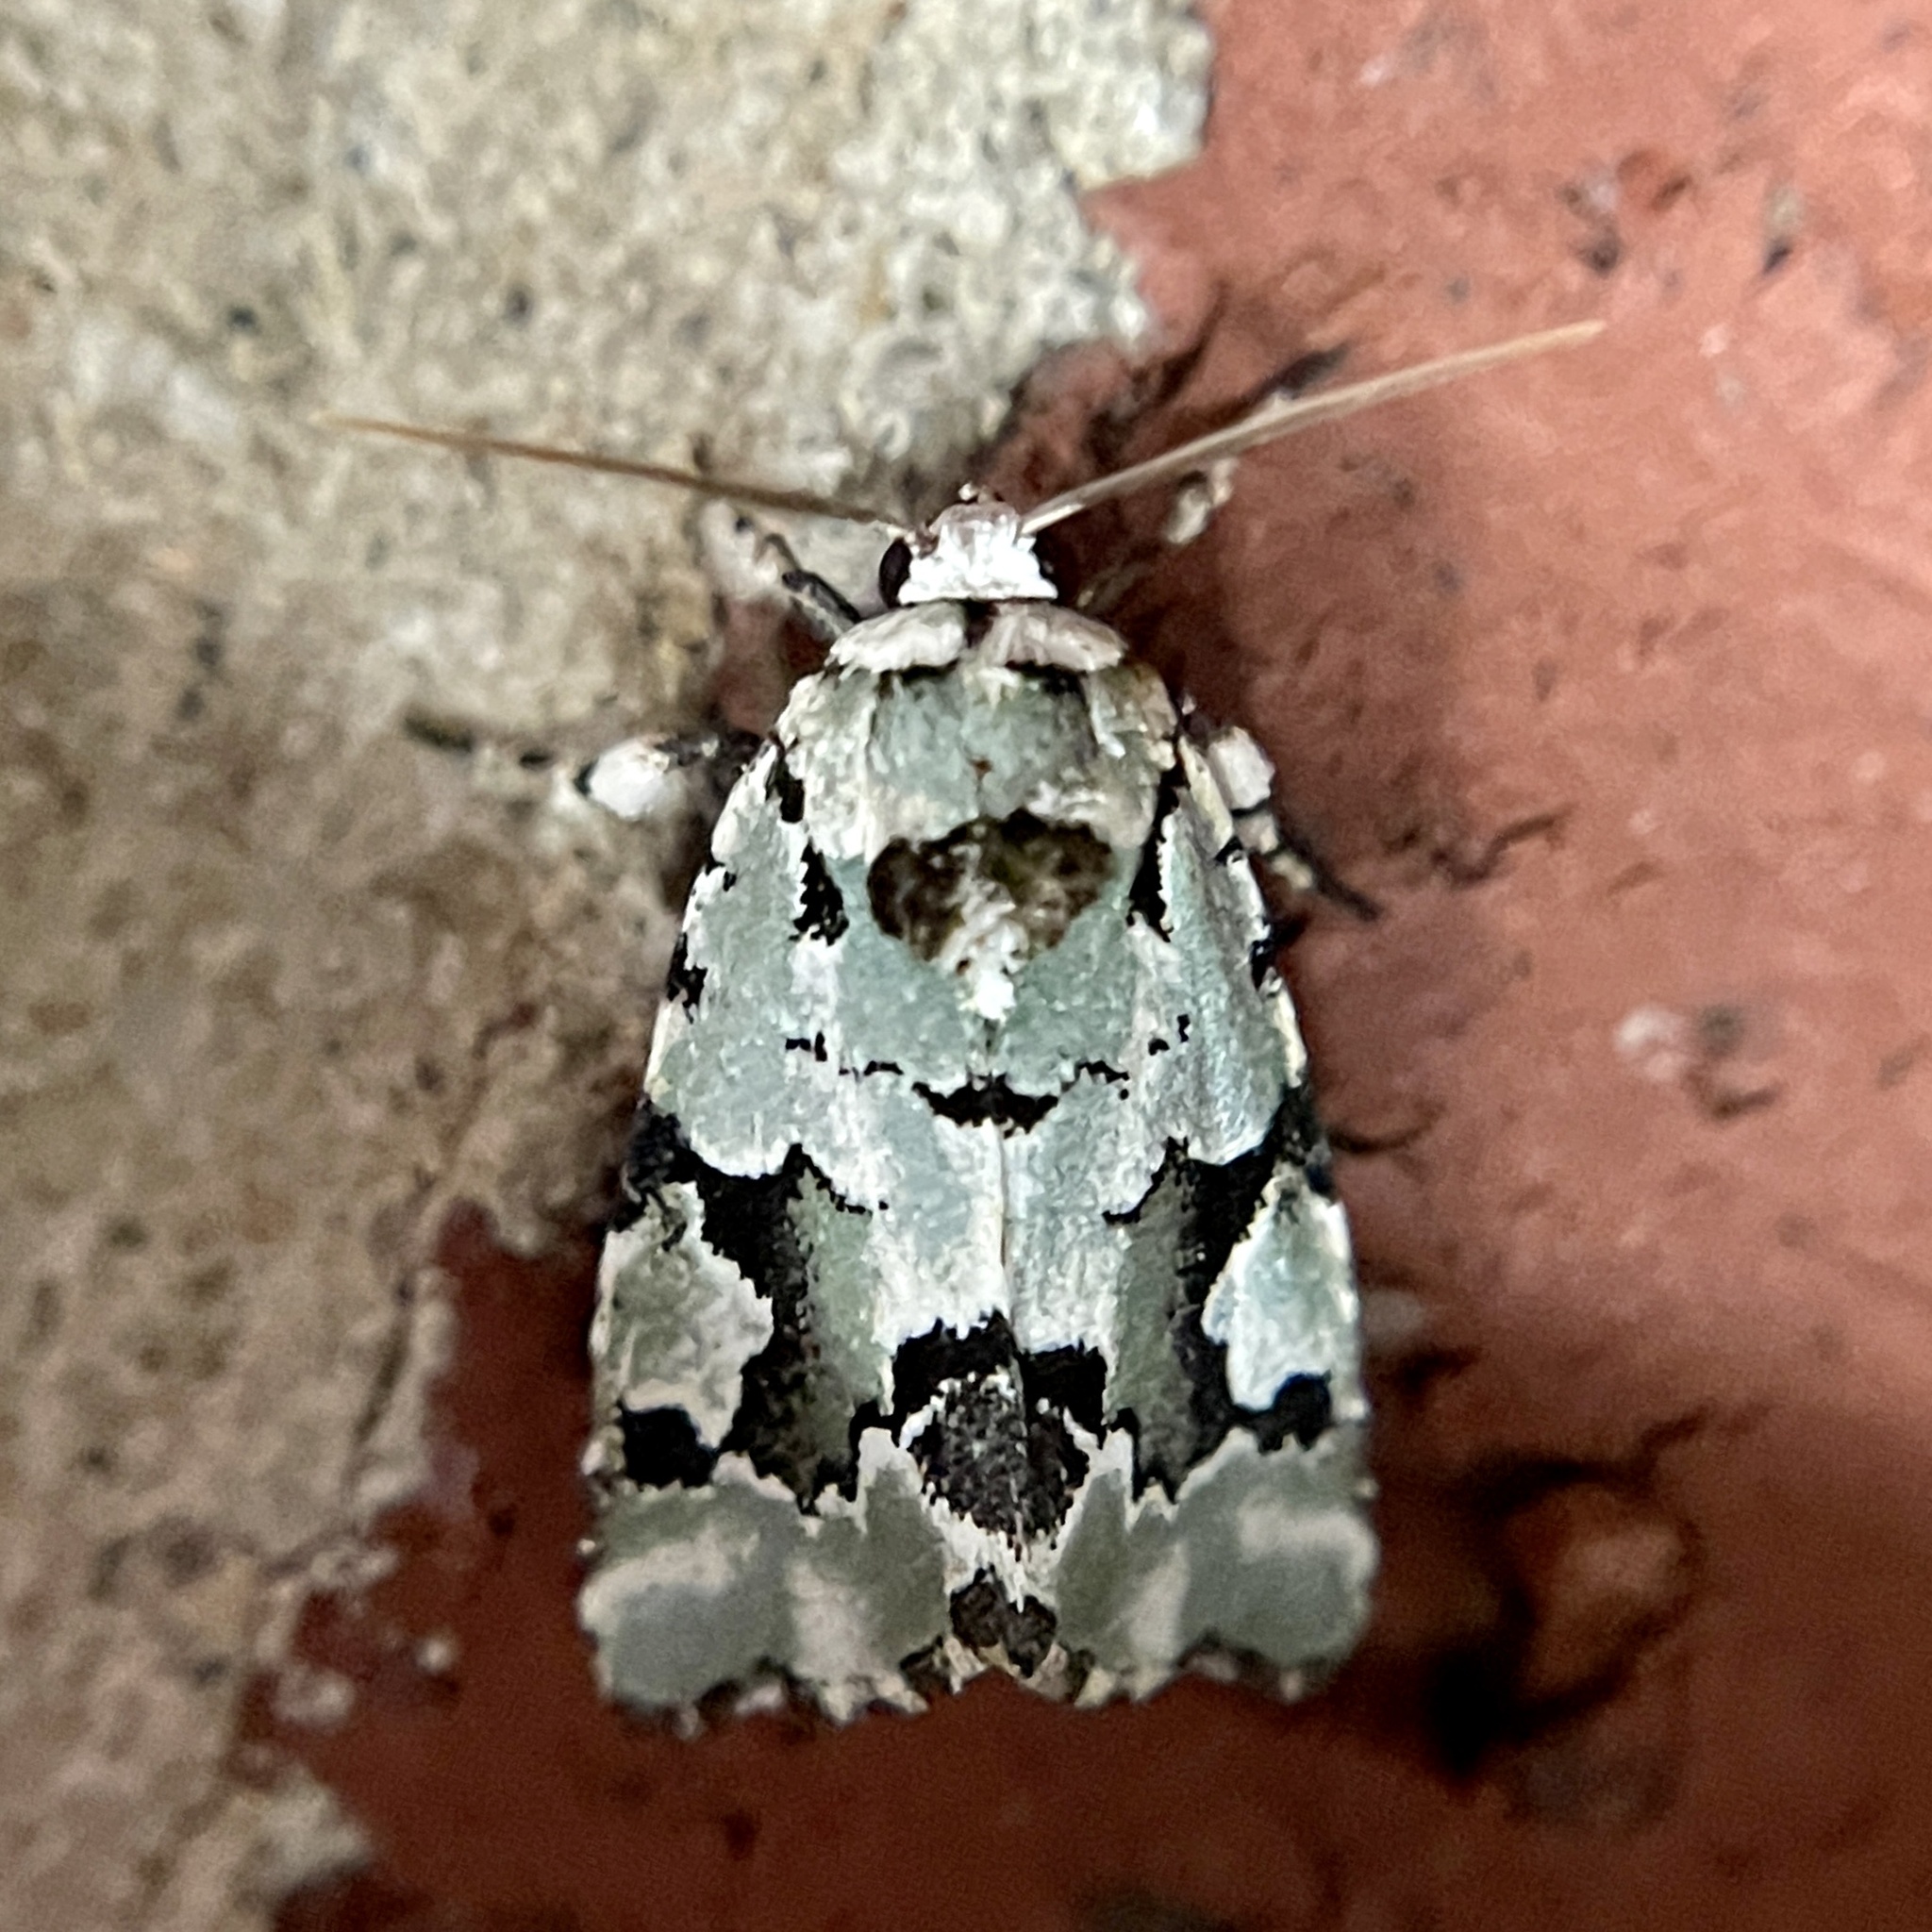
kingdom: Animalia
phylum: Arthropoda
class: Insecta
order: Lepidoptera
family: Noctuidae
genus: Emarginea
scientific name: Emarginea percara
